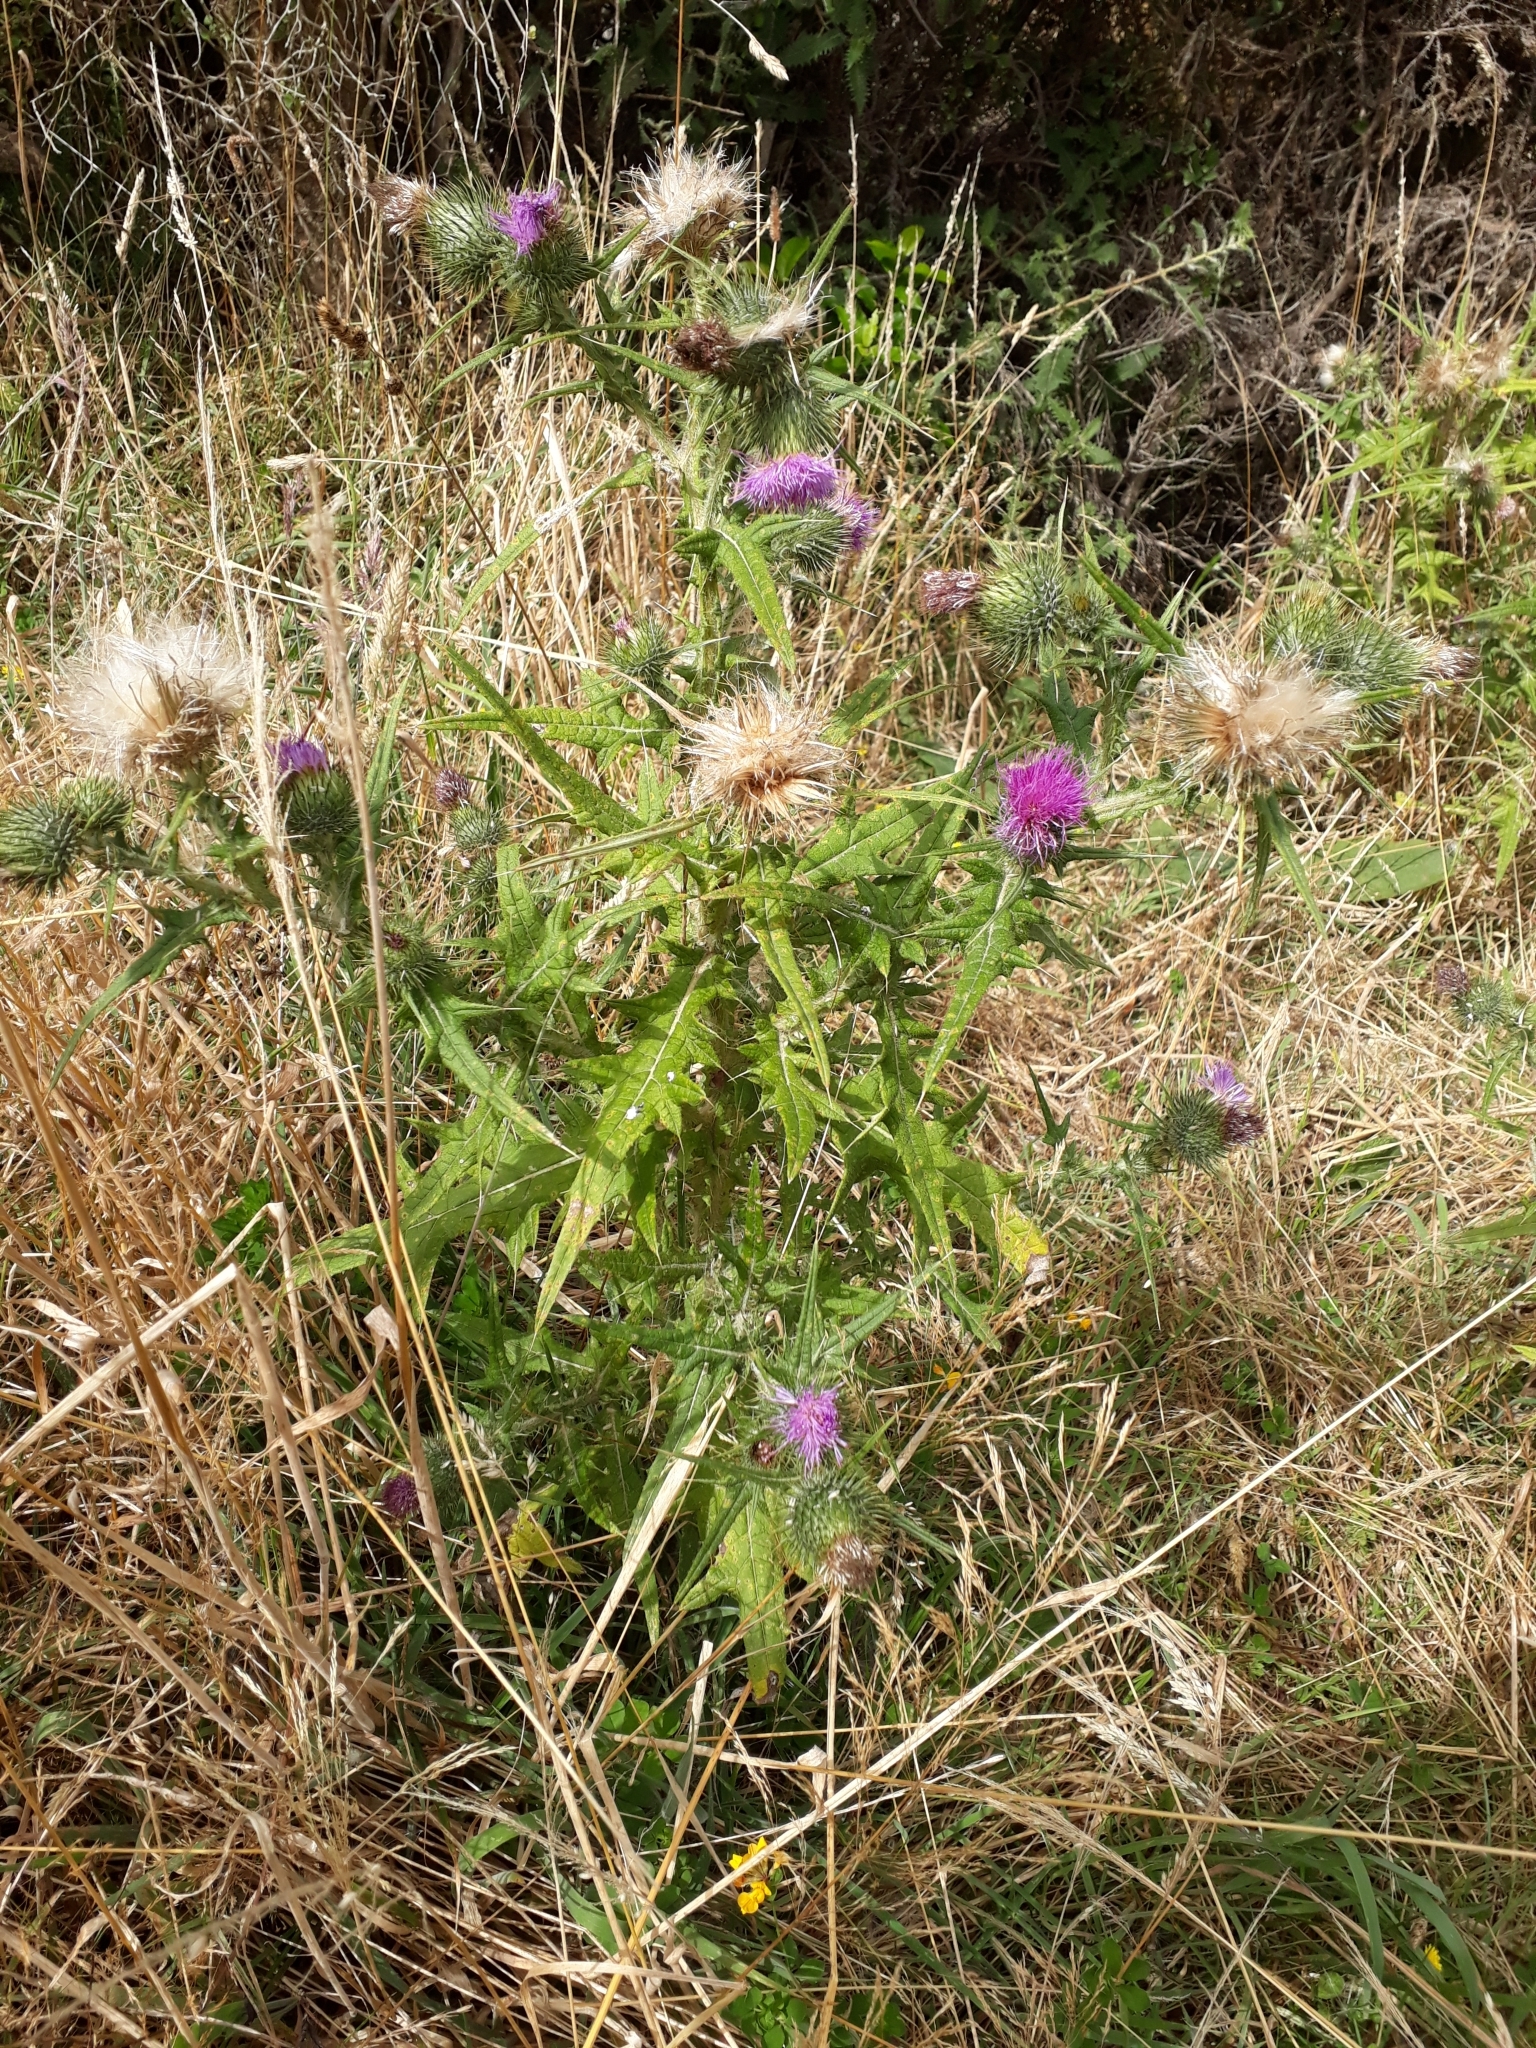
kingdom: Plantae
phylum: Tracheophyta
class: Magnoliopsida
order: Asterales
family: Asteraceae
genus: Cirsium
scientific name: Cirsium vulgare
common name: Bull thistle
